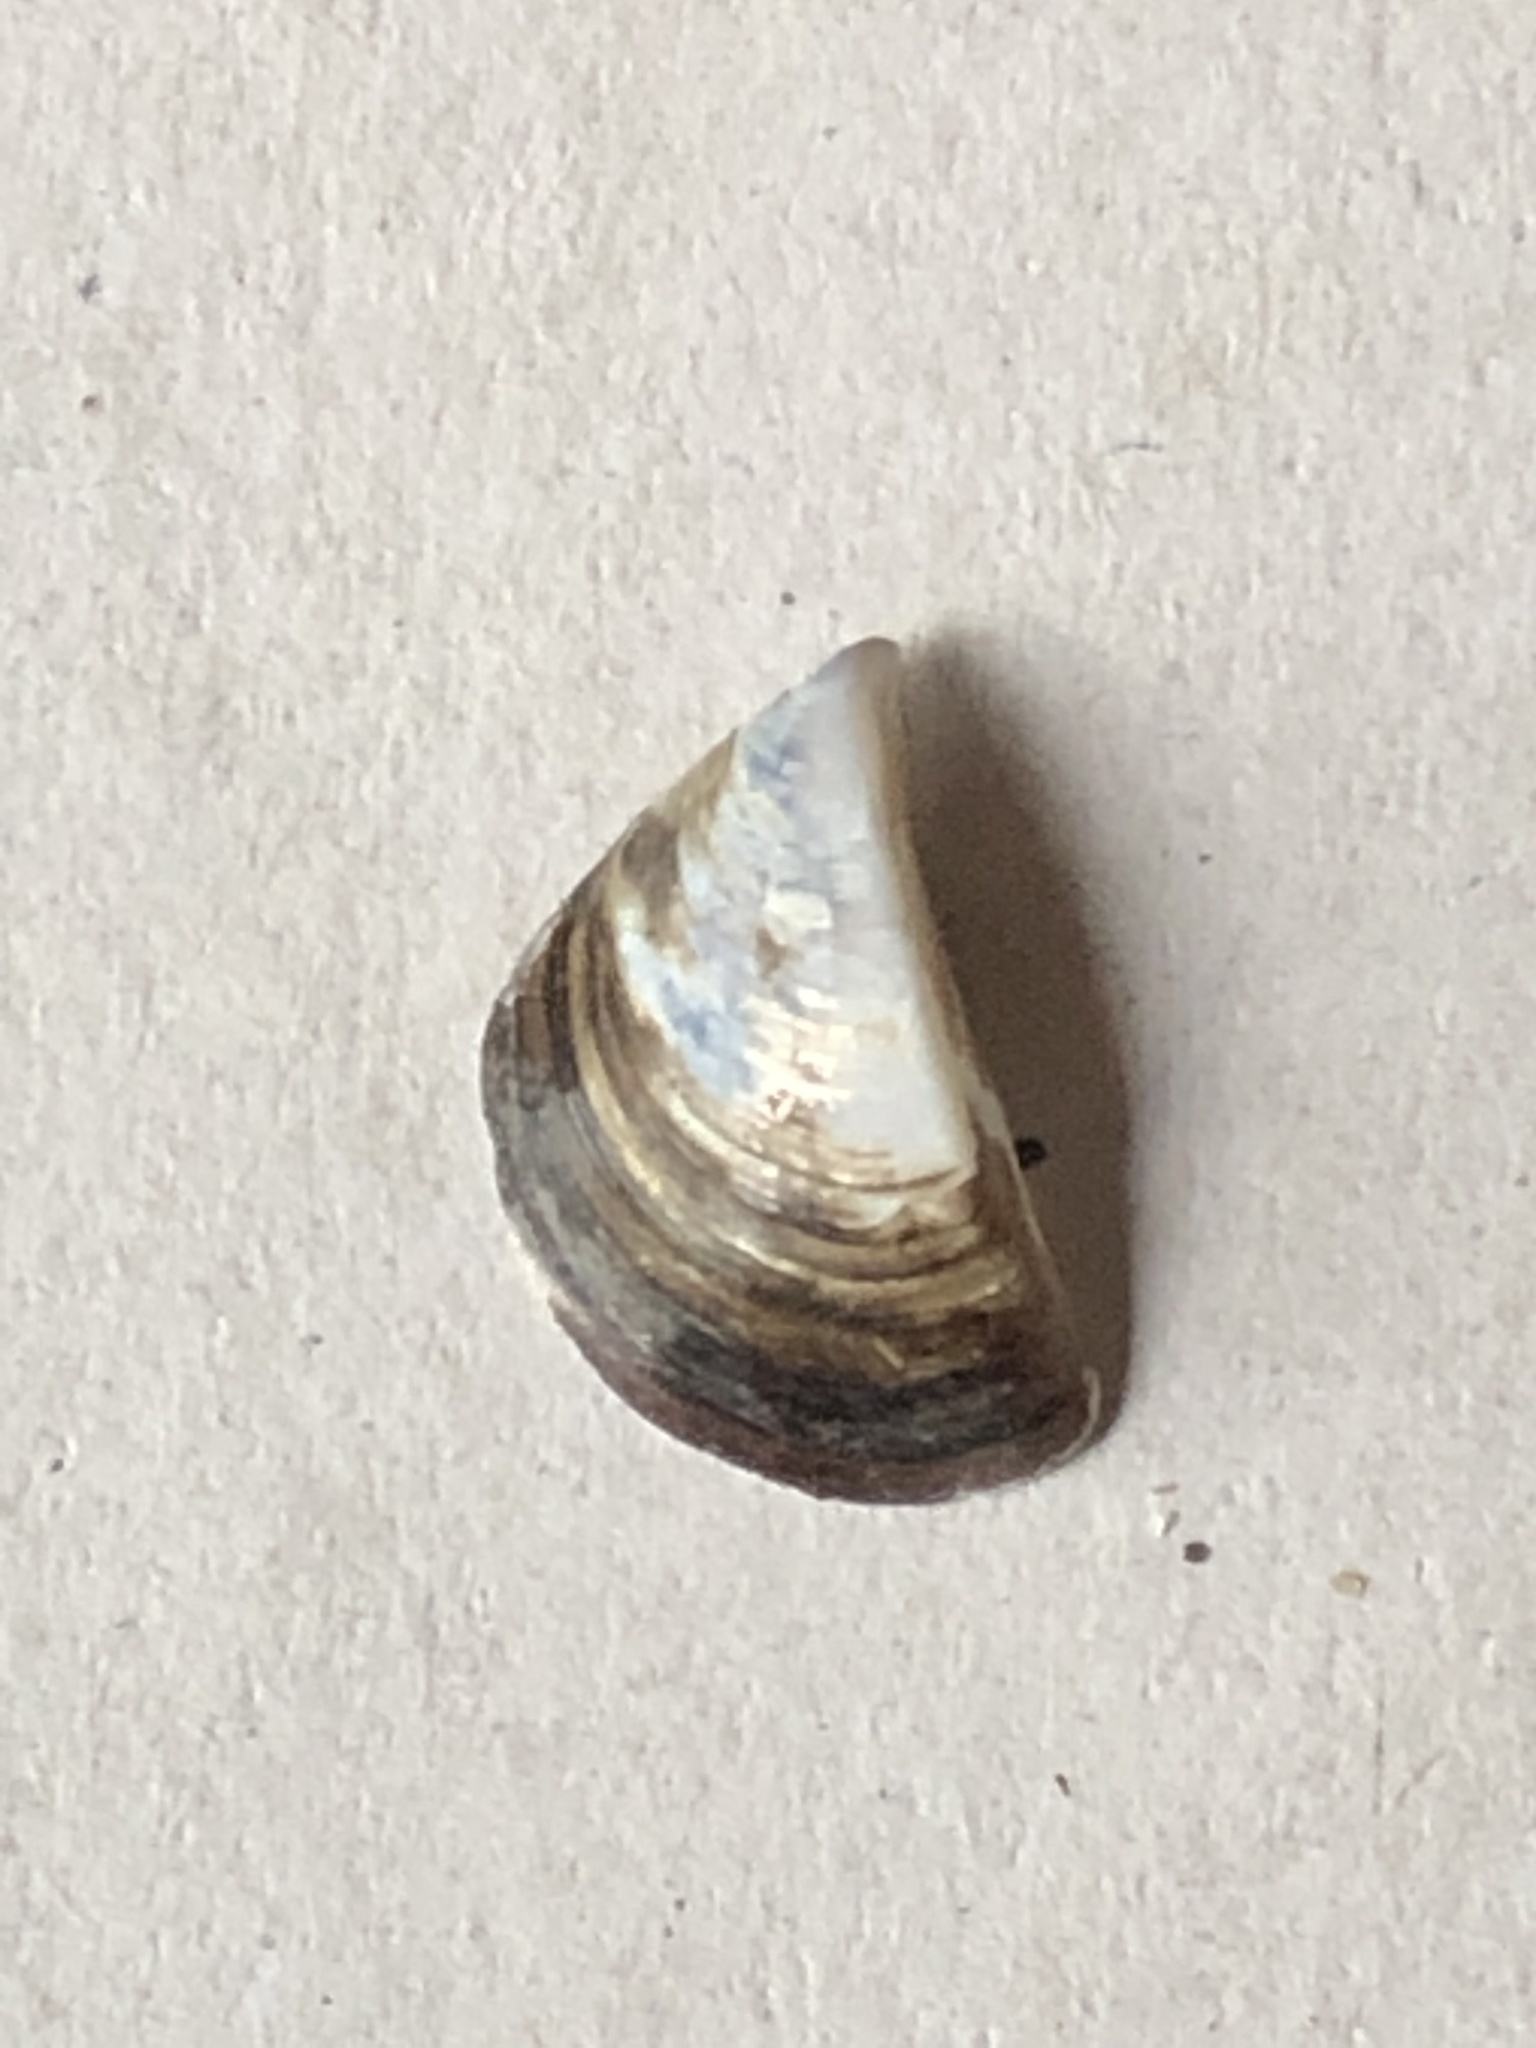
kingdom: Animalia
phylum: Mollusca
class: Bivalvia
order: Myida
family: Dreissenidae
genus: Dreissena
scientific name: Dreissena polymorpha
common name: Zebra mussel
